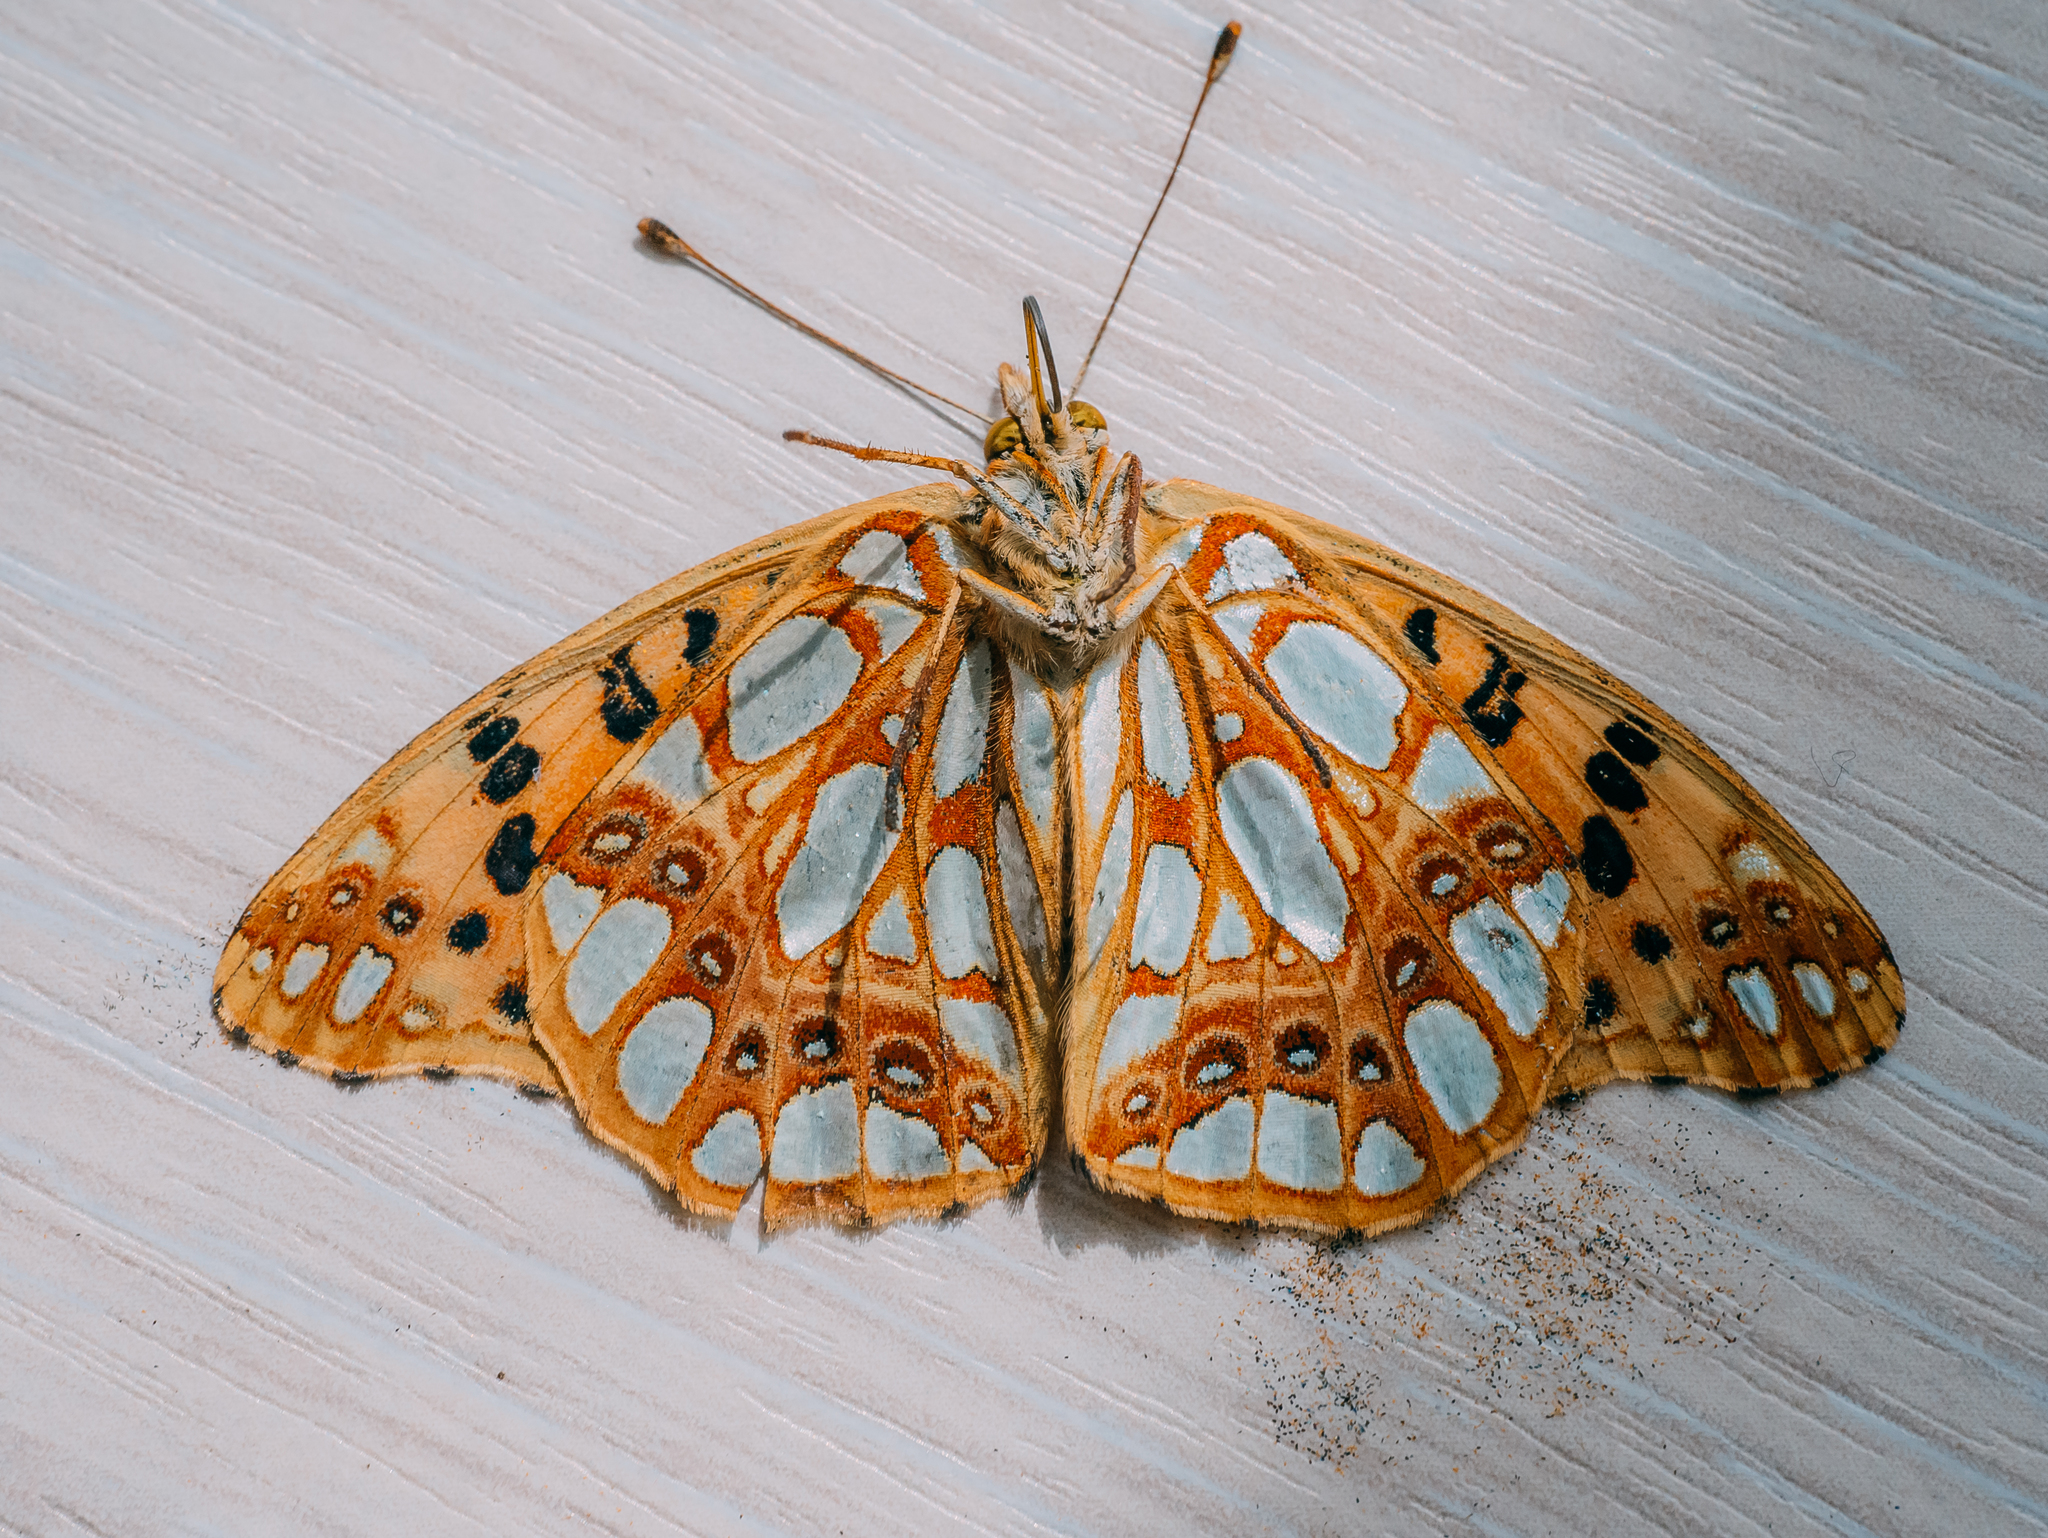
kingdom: Animalia
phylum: Arthropoda
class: Insecta
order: Lepidoptera
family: Nymphalidae
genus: Issoria
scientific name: Issoria lathonia
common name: Queen of spain fritillary
